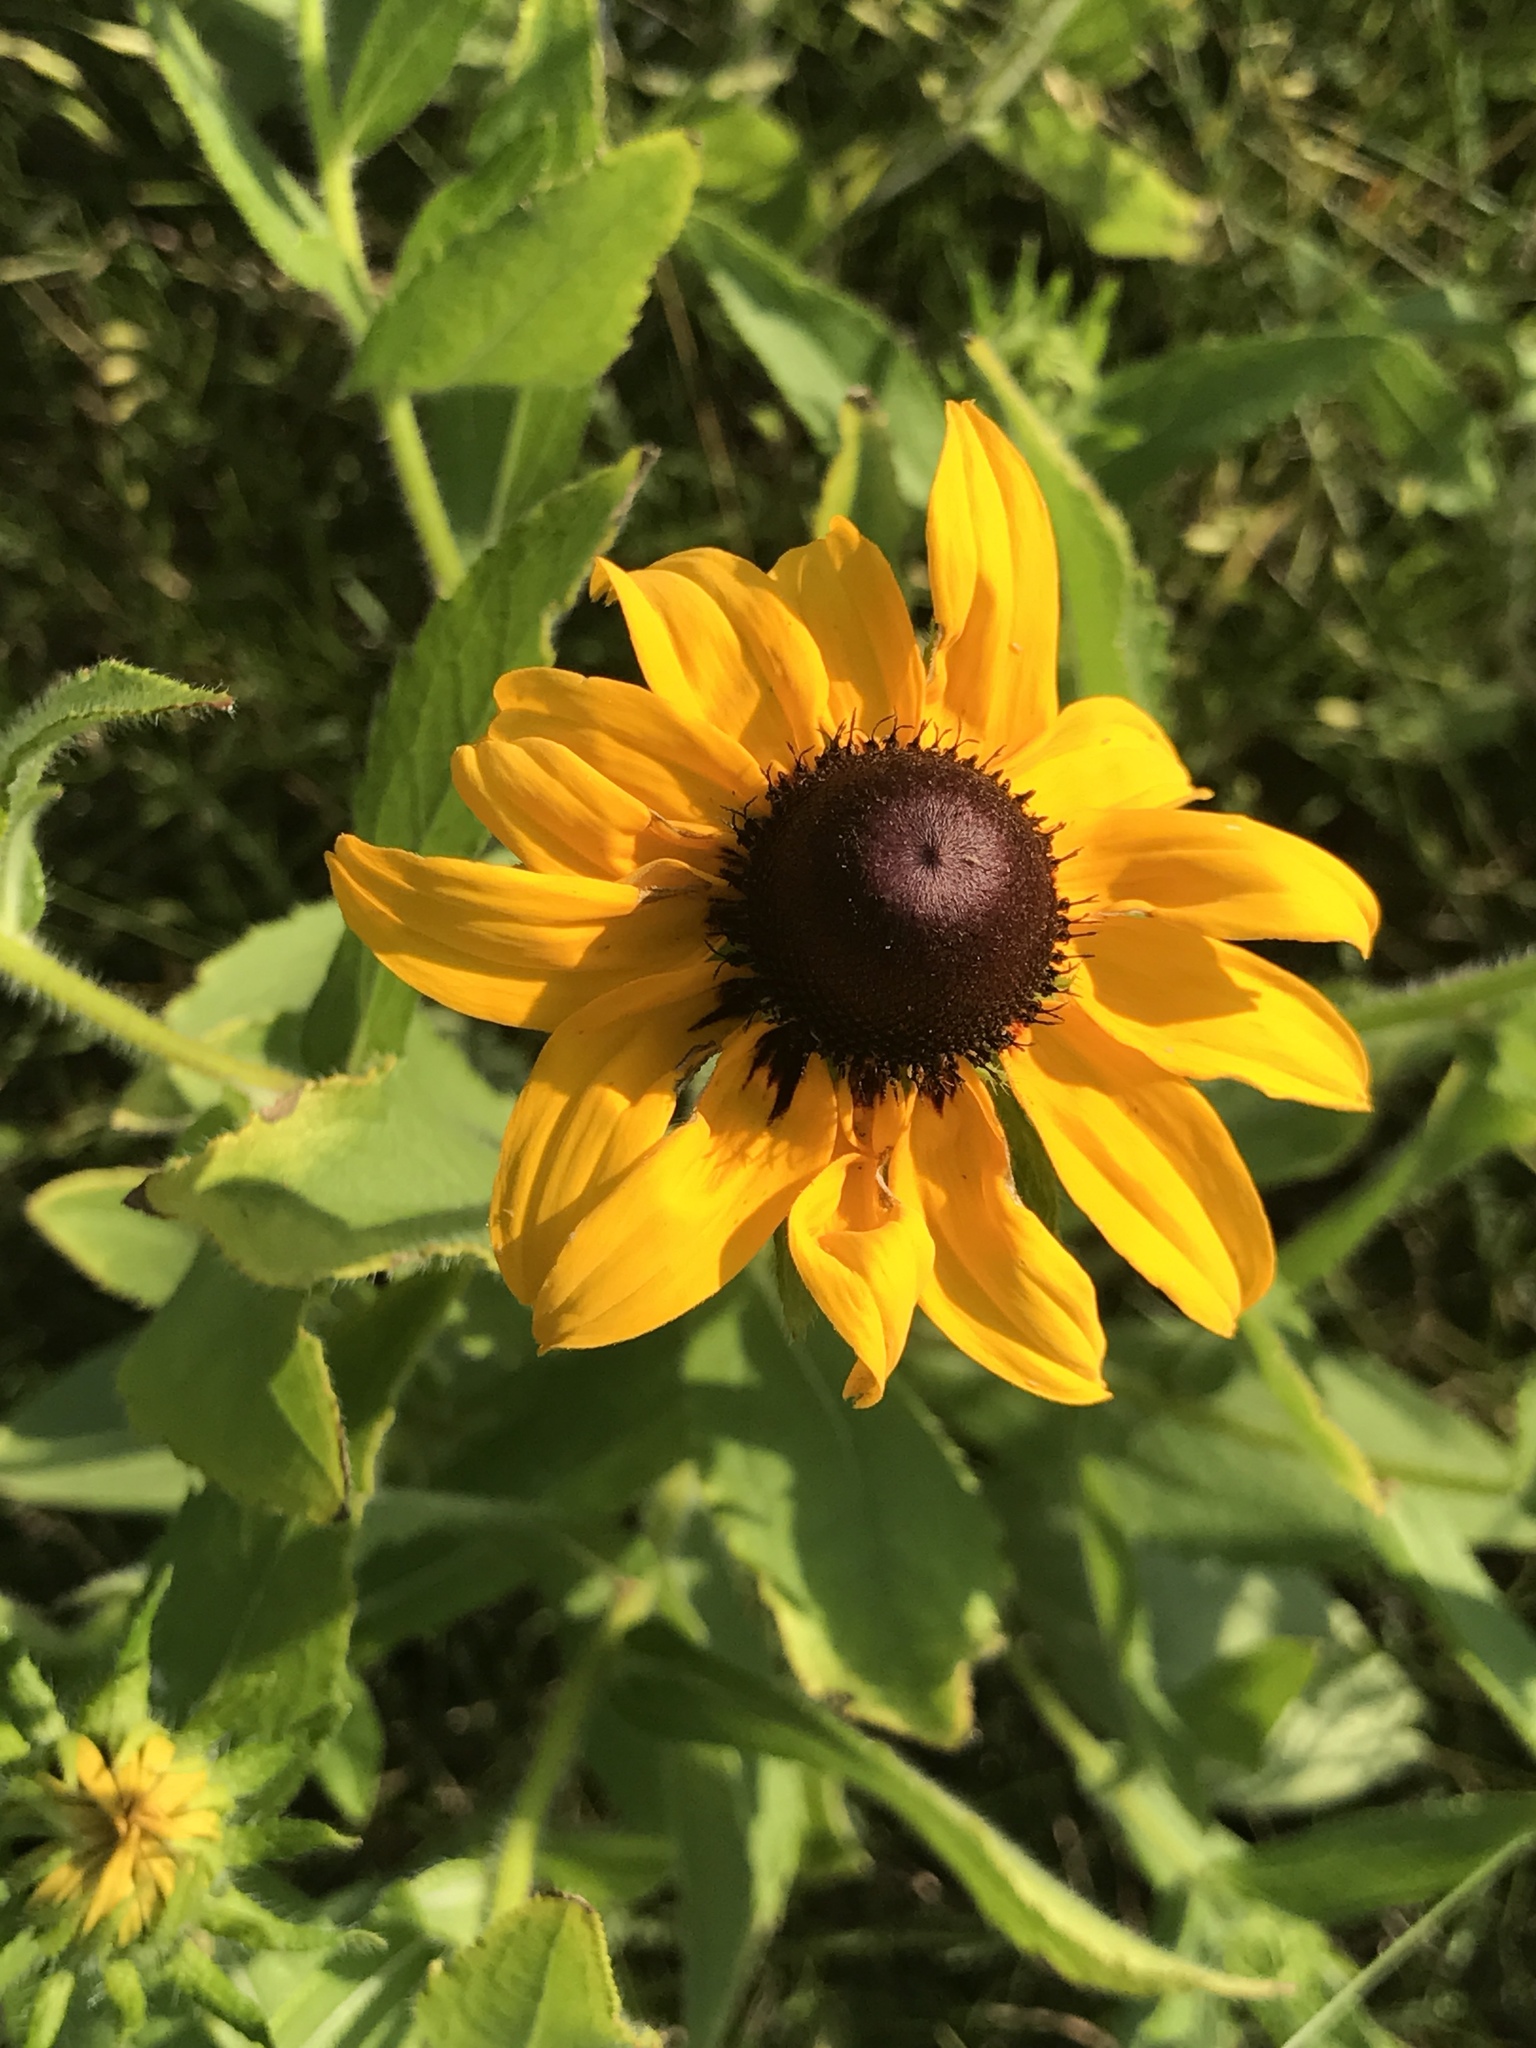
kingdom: Plantae
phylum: Tracheophyta
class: Magnoliopsida
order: Asterales
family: Asteraceae
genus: Rudbeckia
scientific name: Rudbeckia hirta
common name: Black-eyed-susan
